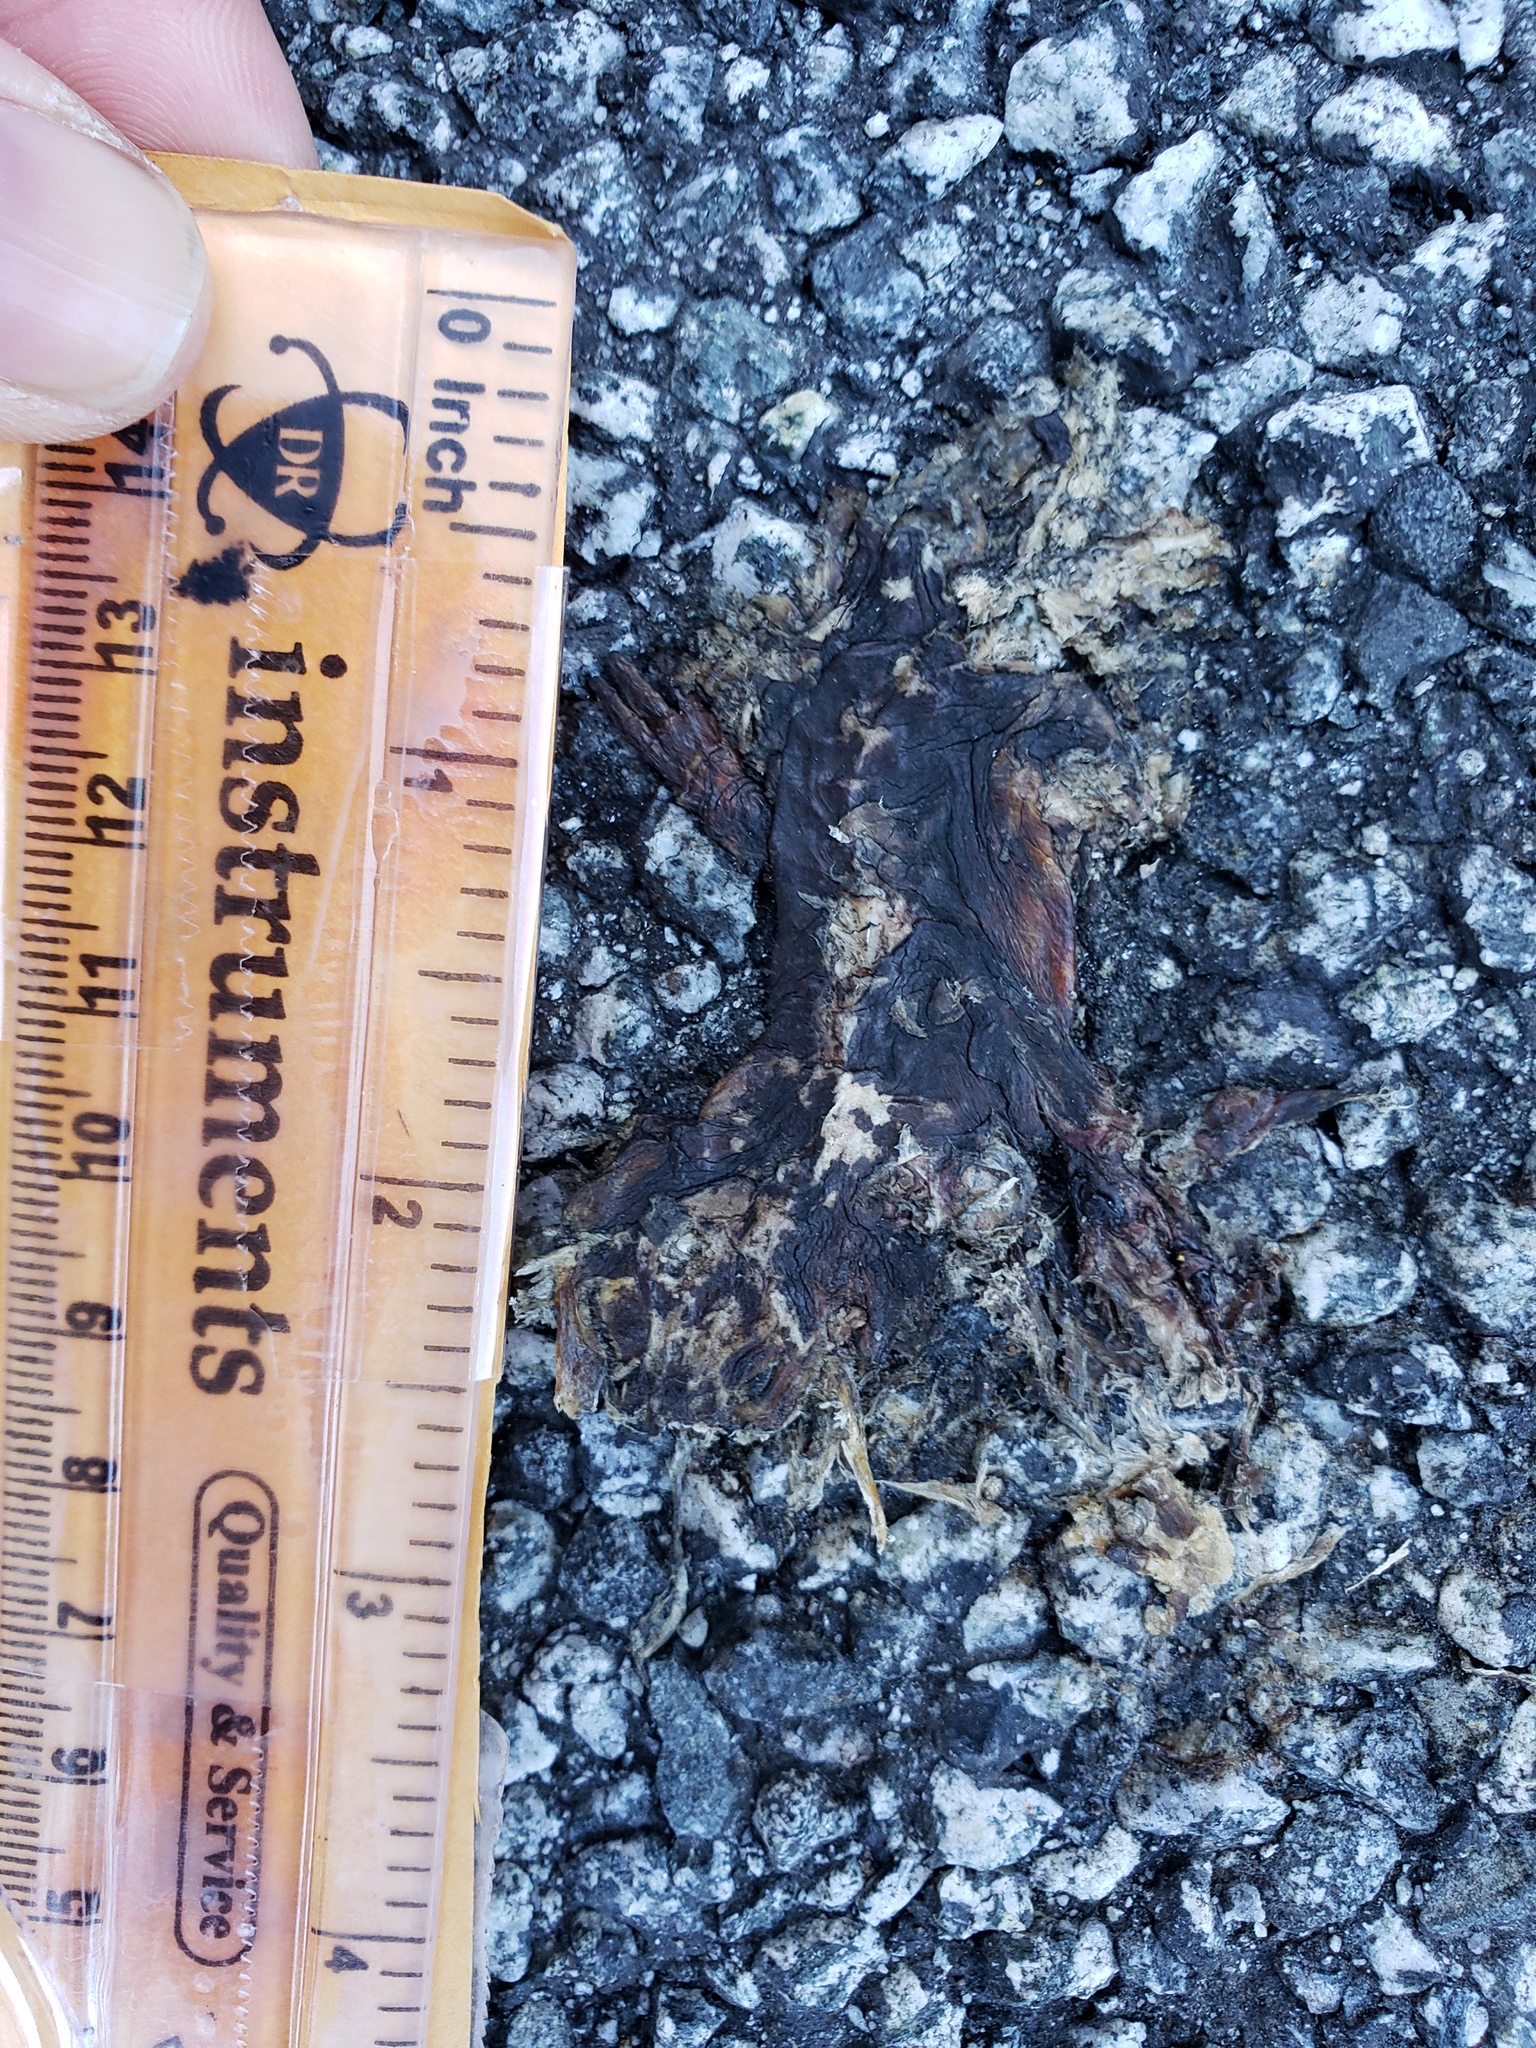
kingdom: Animalia
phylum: Chordata
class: Amphibia
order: Caudata
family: Salamandridae
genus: Taricha
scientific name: Taricha
